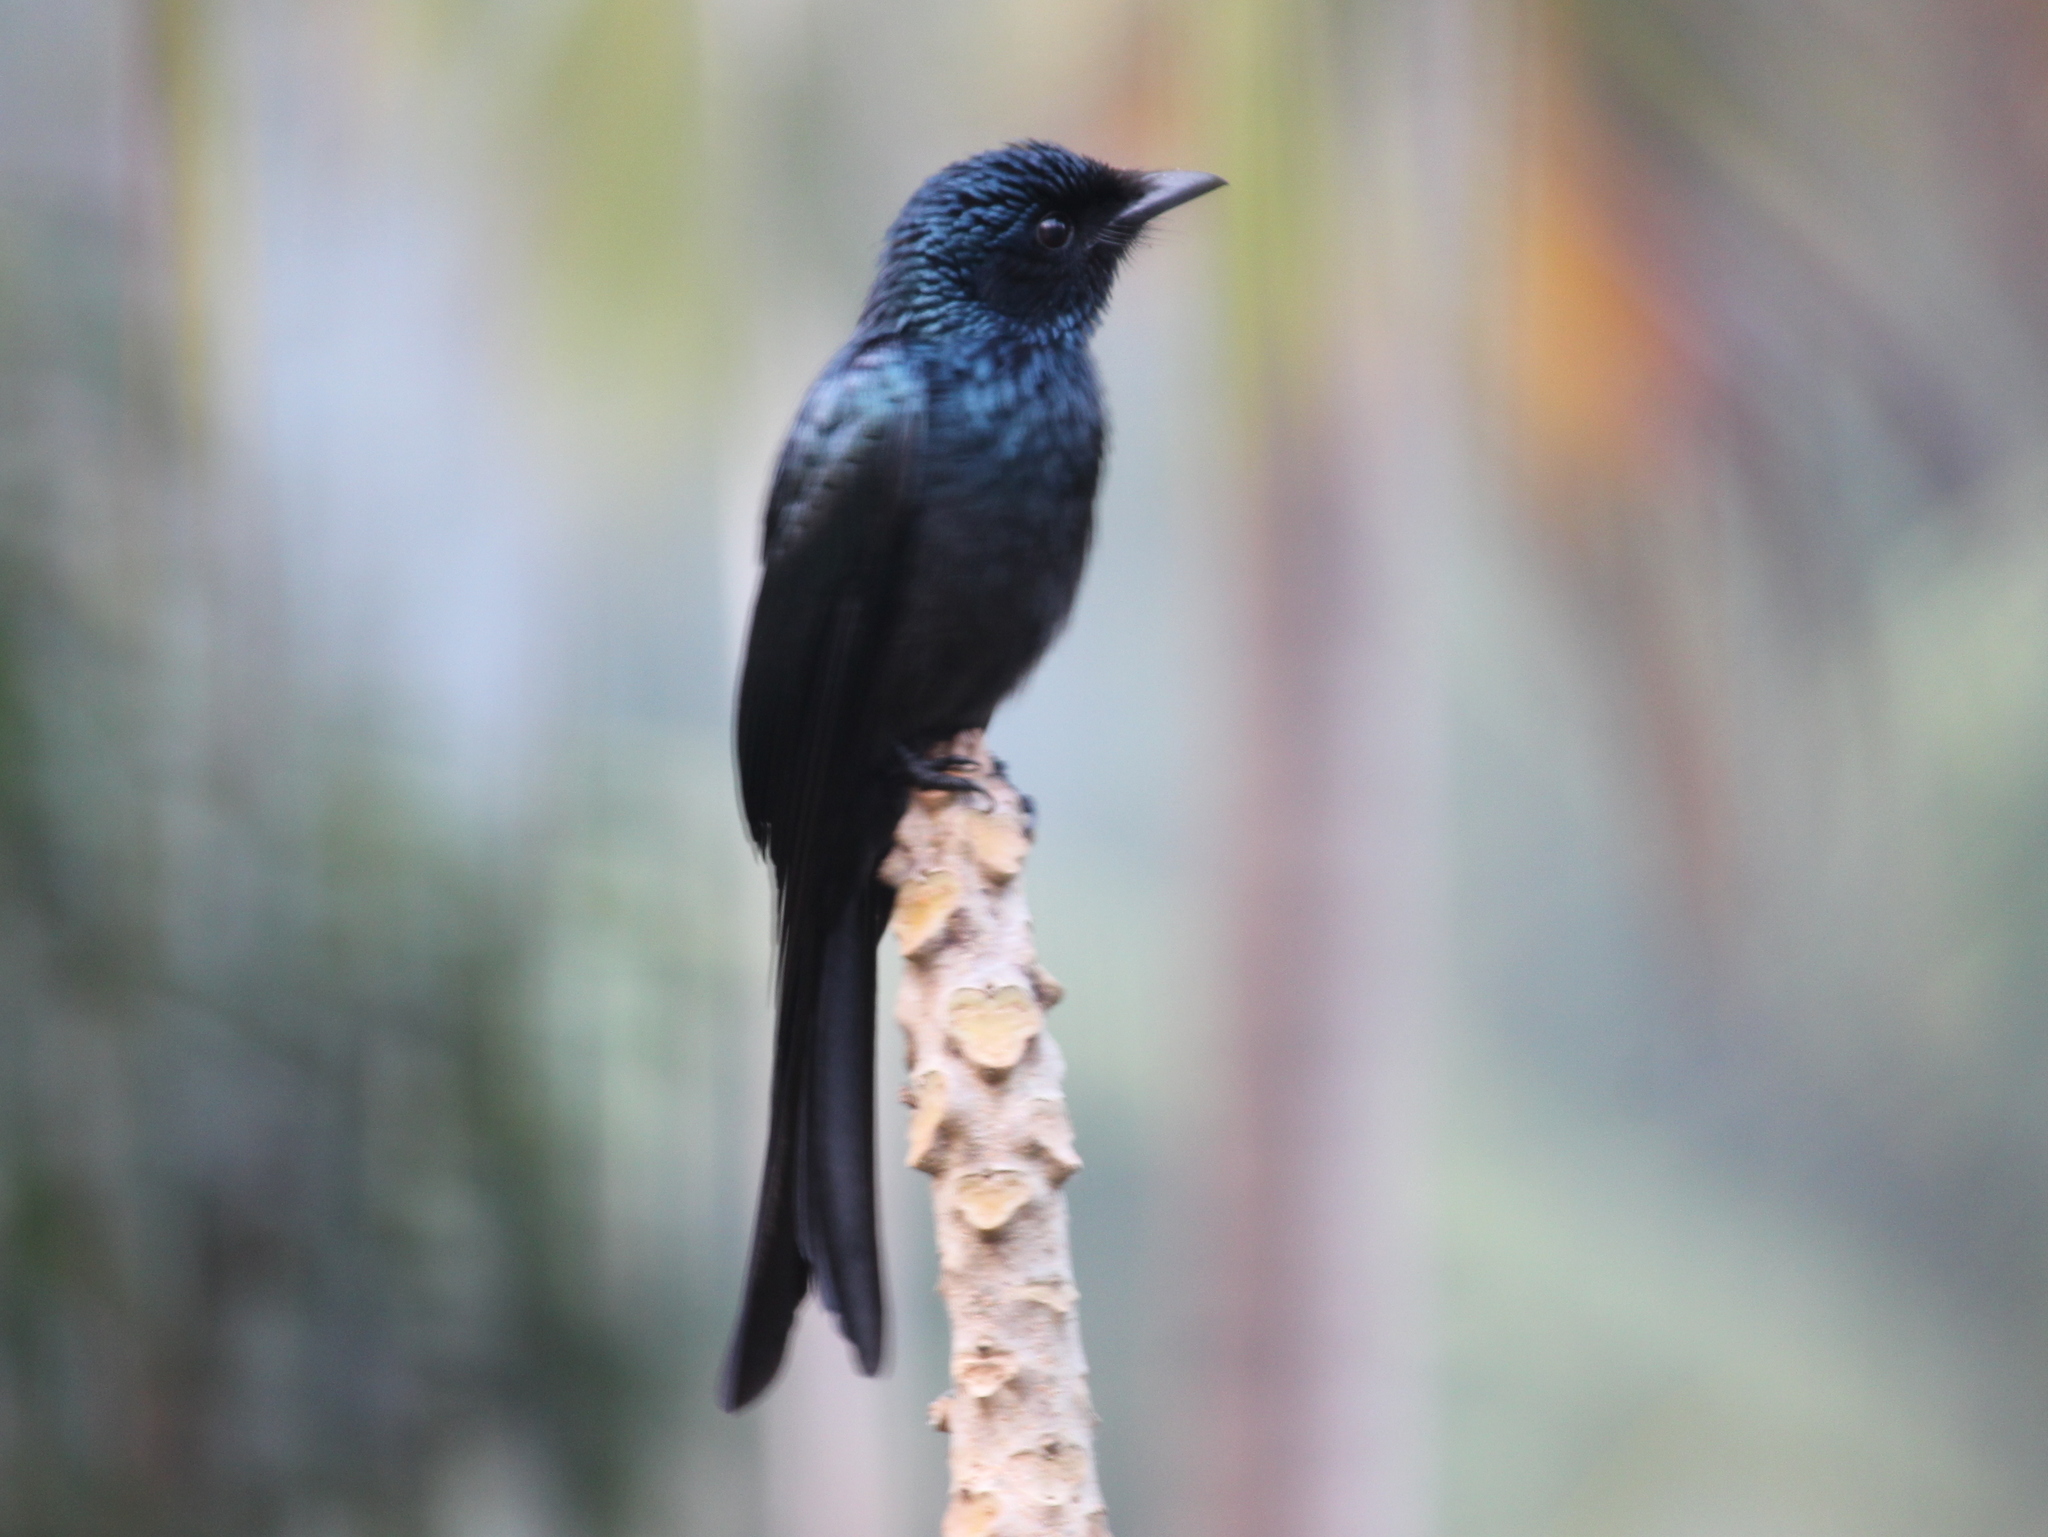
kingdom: Animalia
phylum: Chordata
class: Aves
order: Passeriformes
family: Dicruridae
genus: Dicrurus
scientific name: Dicrurus aeneus
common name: Bronzed drongo
